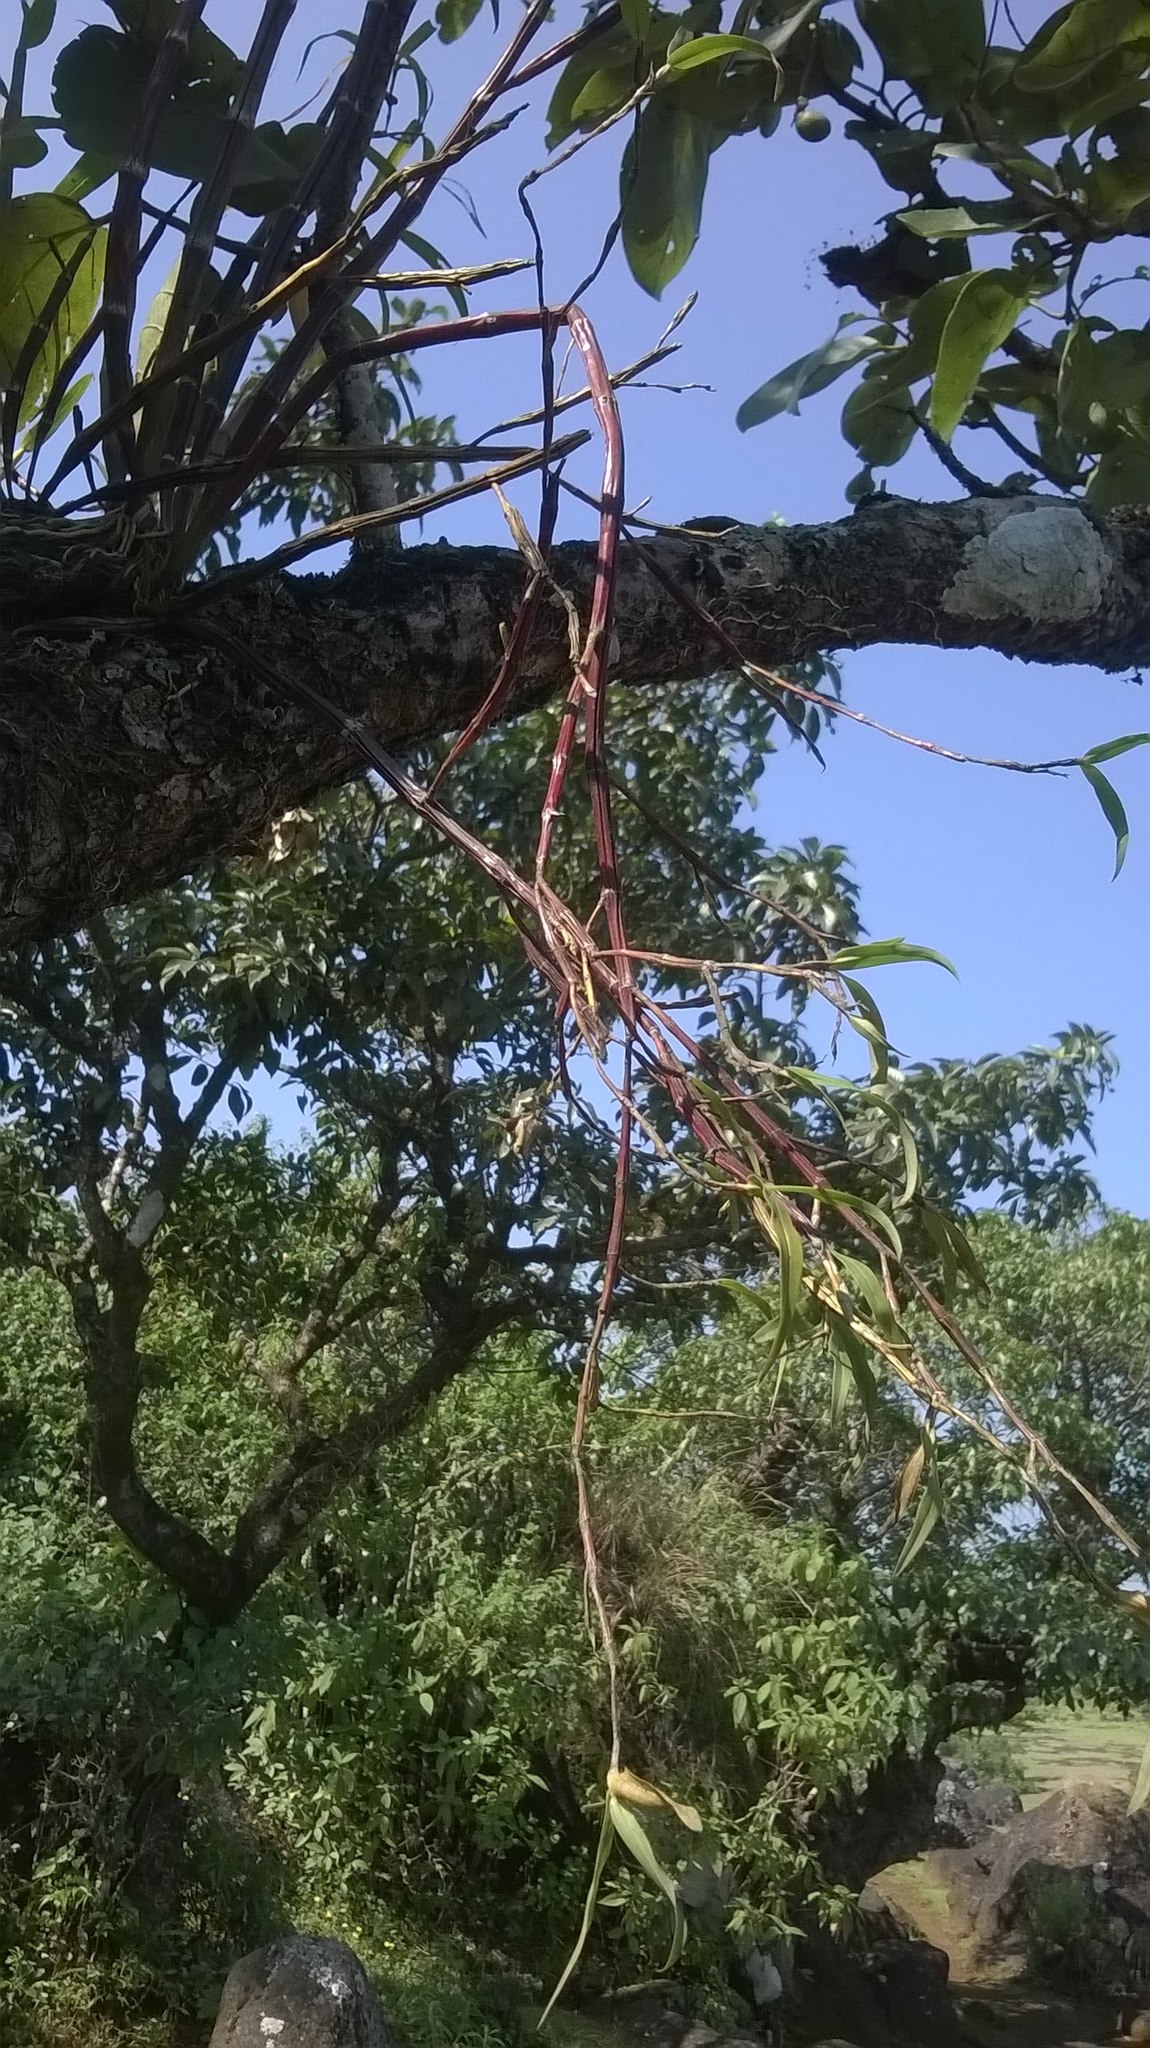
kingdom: Plantae
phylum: Tracheophyta
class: Liliopsida
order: Asparagales
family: Orchidaceae
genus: Dendrobium
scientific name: Dendrobium herbaceum
